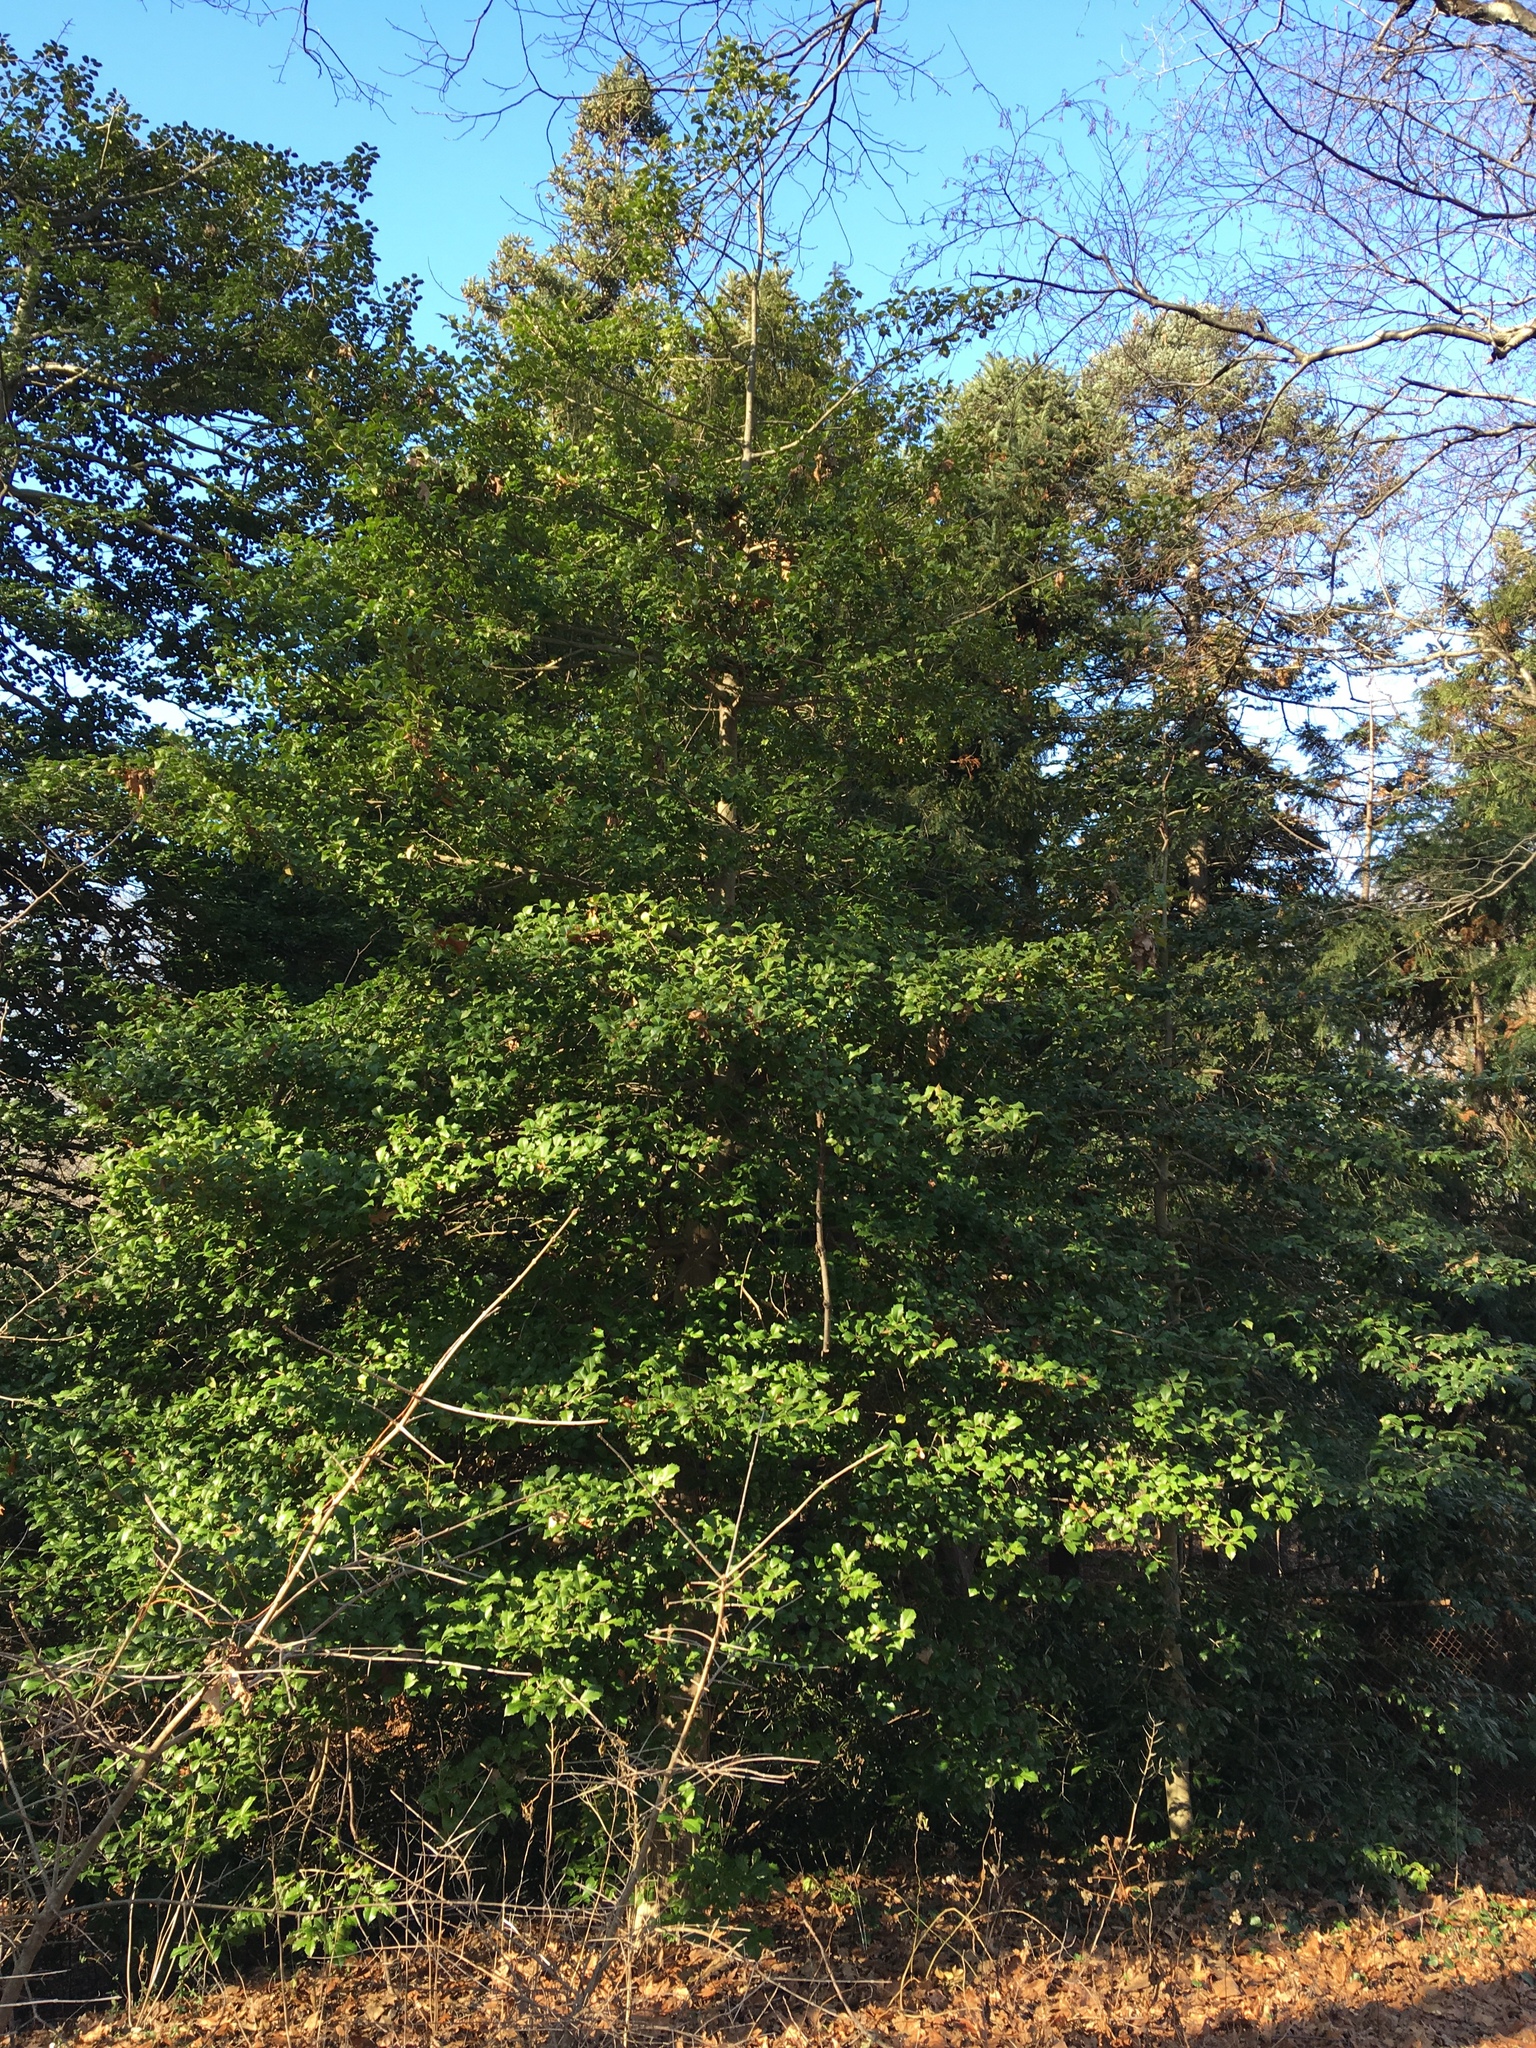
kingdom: Plantae
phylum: Tracheophyta
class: Magnoliopsida
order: Aquifoliales
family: Aquifoliaceae
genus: Ilex
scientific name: Ilex opaca
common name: American holly
